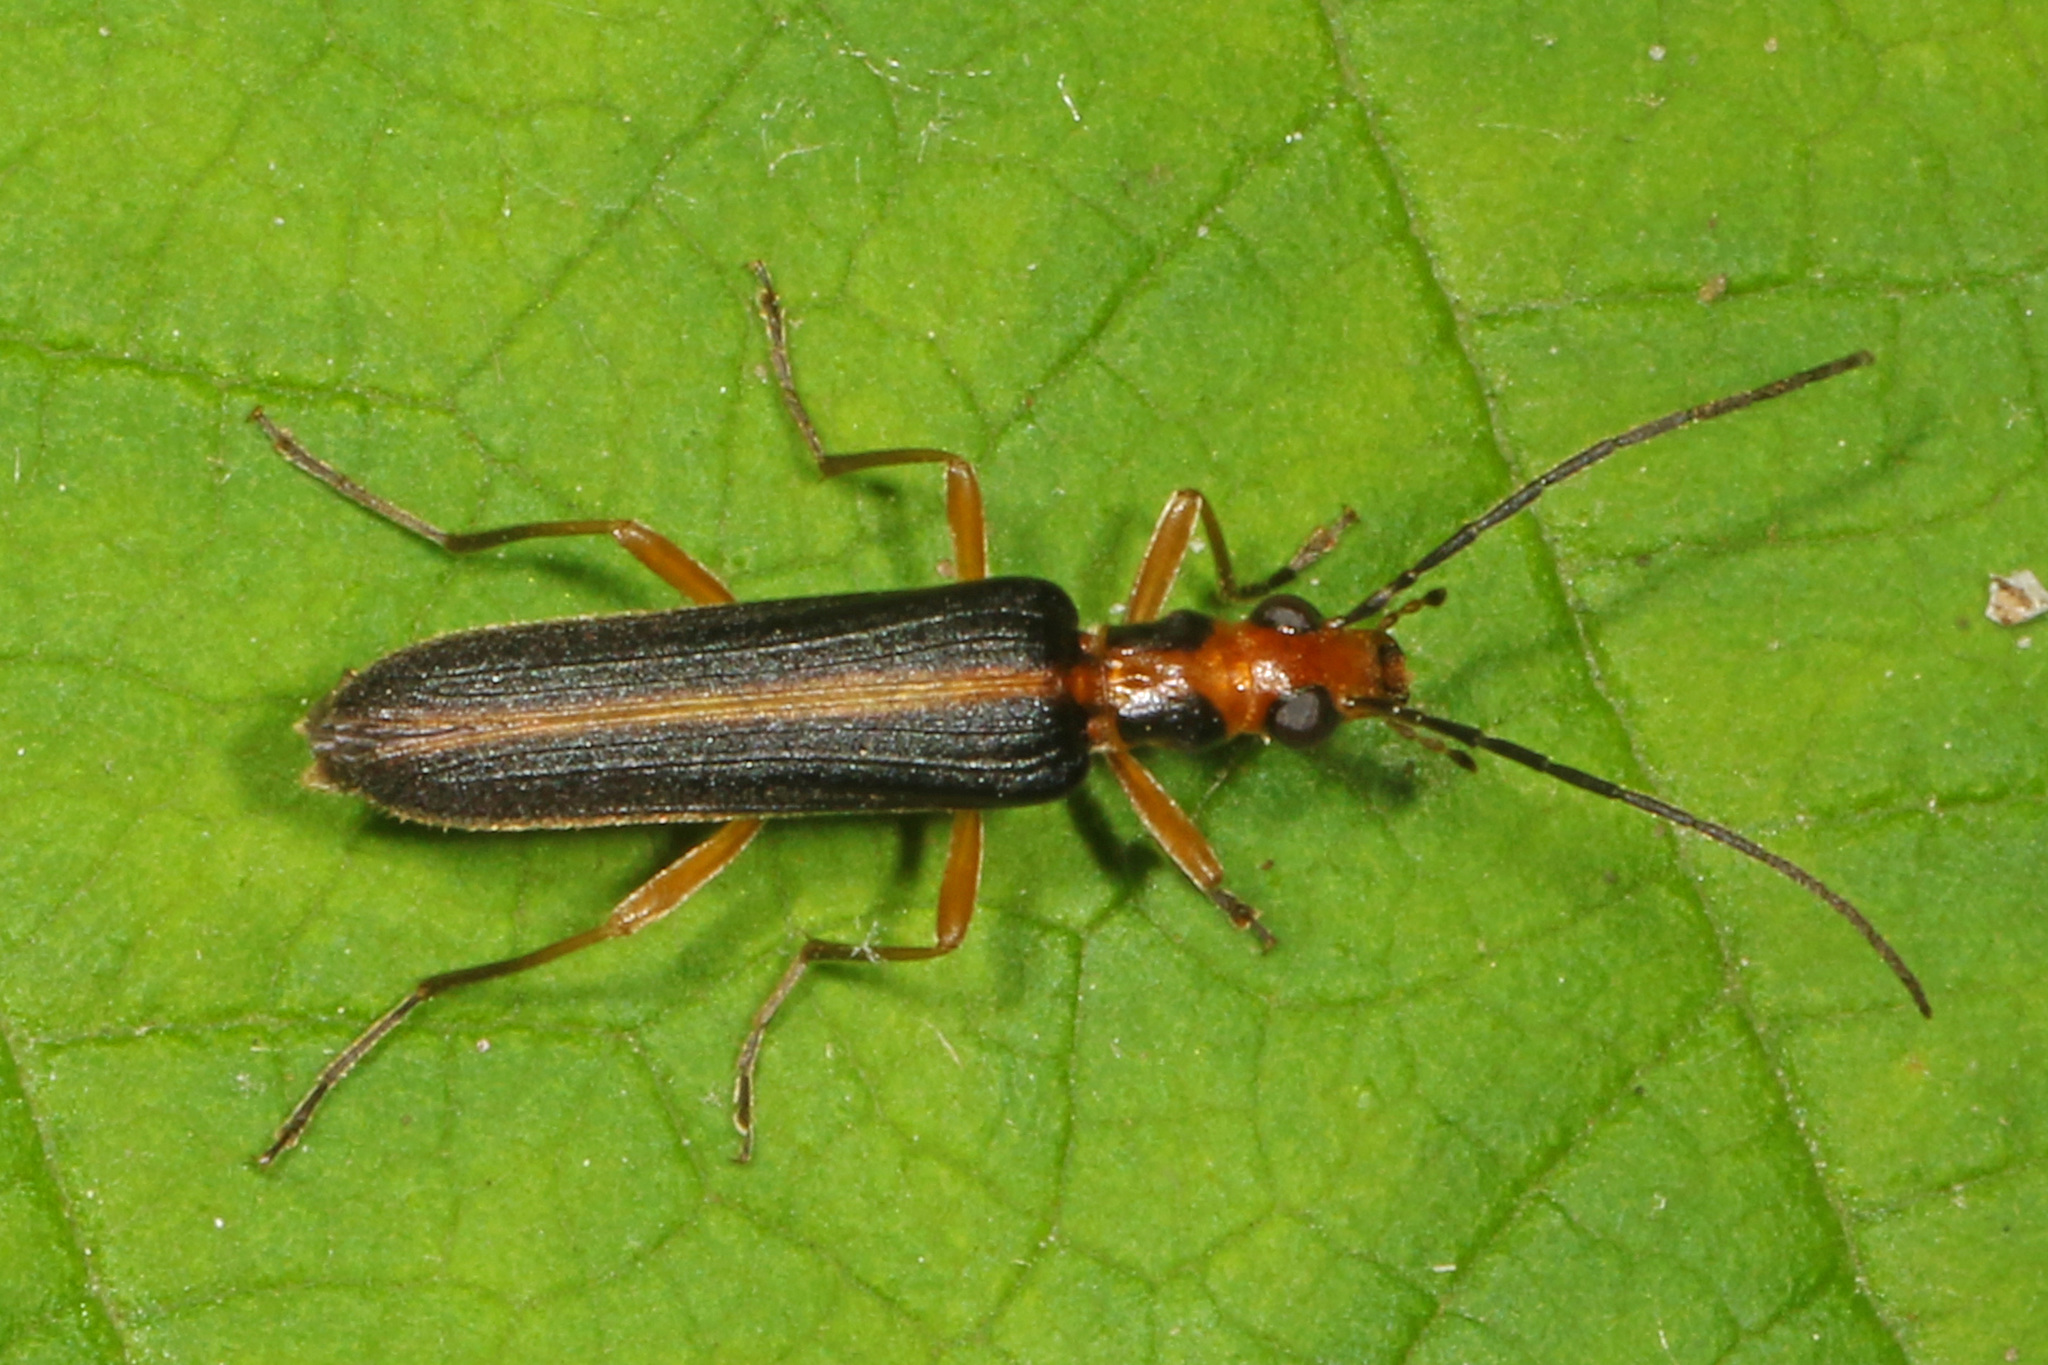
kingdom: Animalia
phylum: Arthropoda
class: Insecta
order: Coleoptera
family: Oedemeridae
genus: Nacerdes
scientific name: Nacerdes
